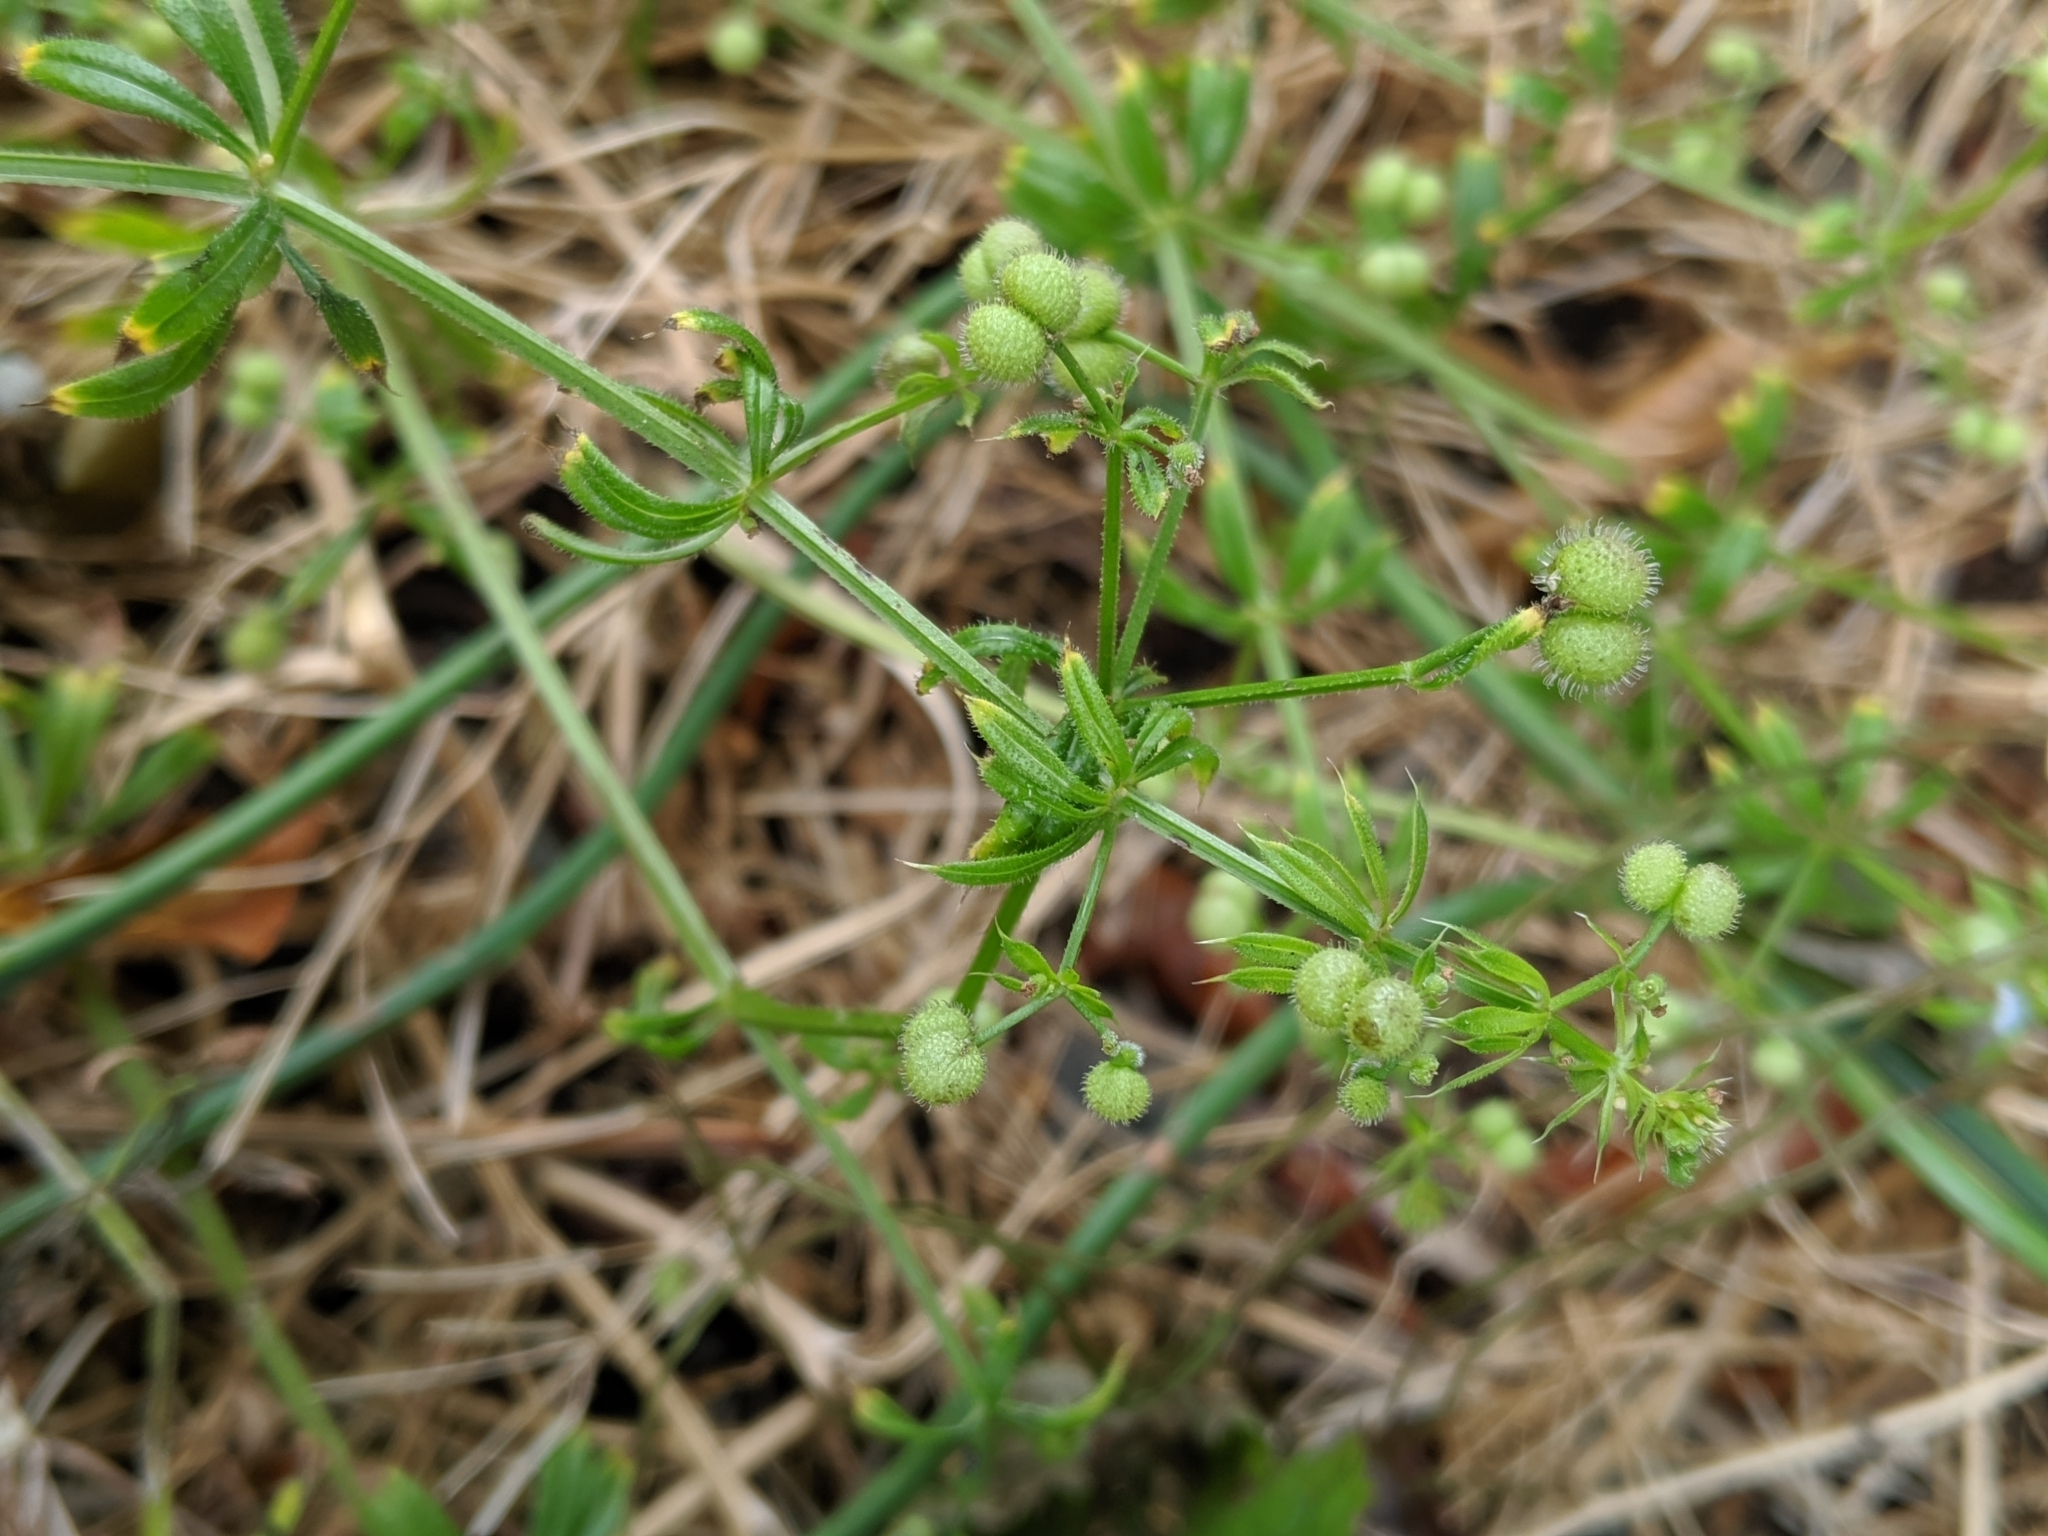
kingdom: Plantae
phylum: Tracheophyta
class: Magnoliopsida
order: Gentianales
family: Rubiaceae
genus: Galium
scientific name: Galium aparine
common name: Cleavers
